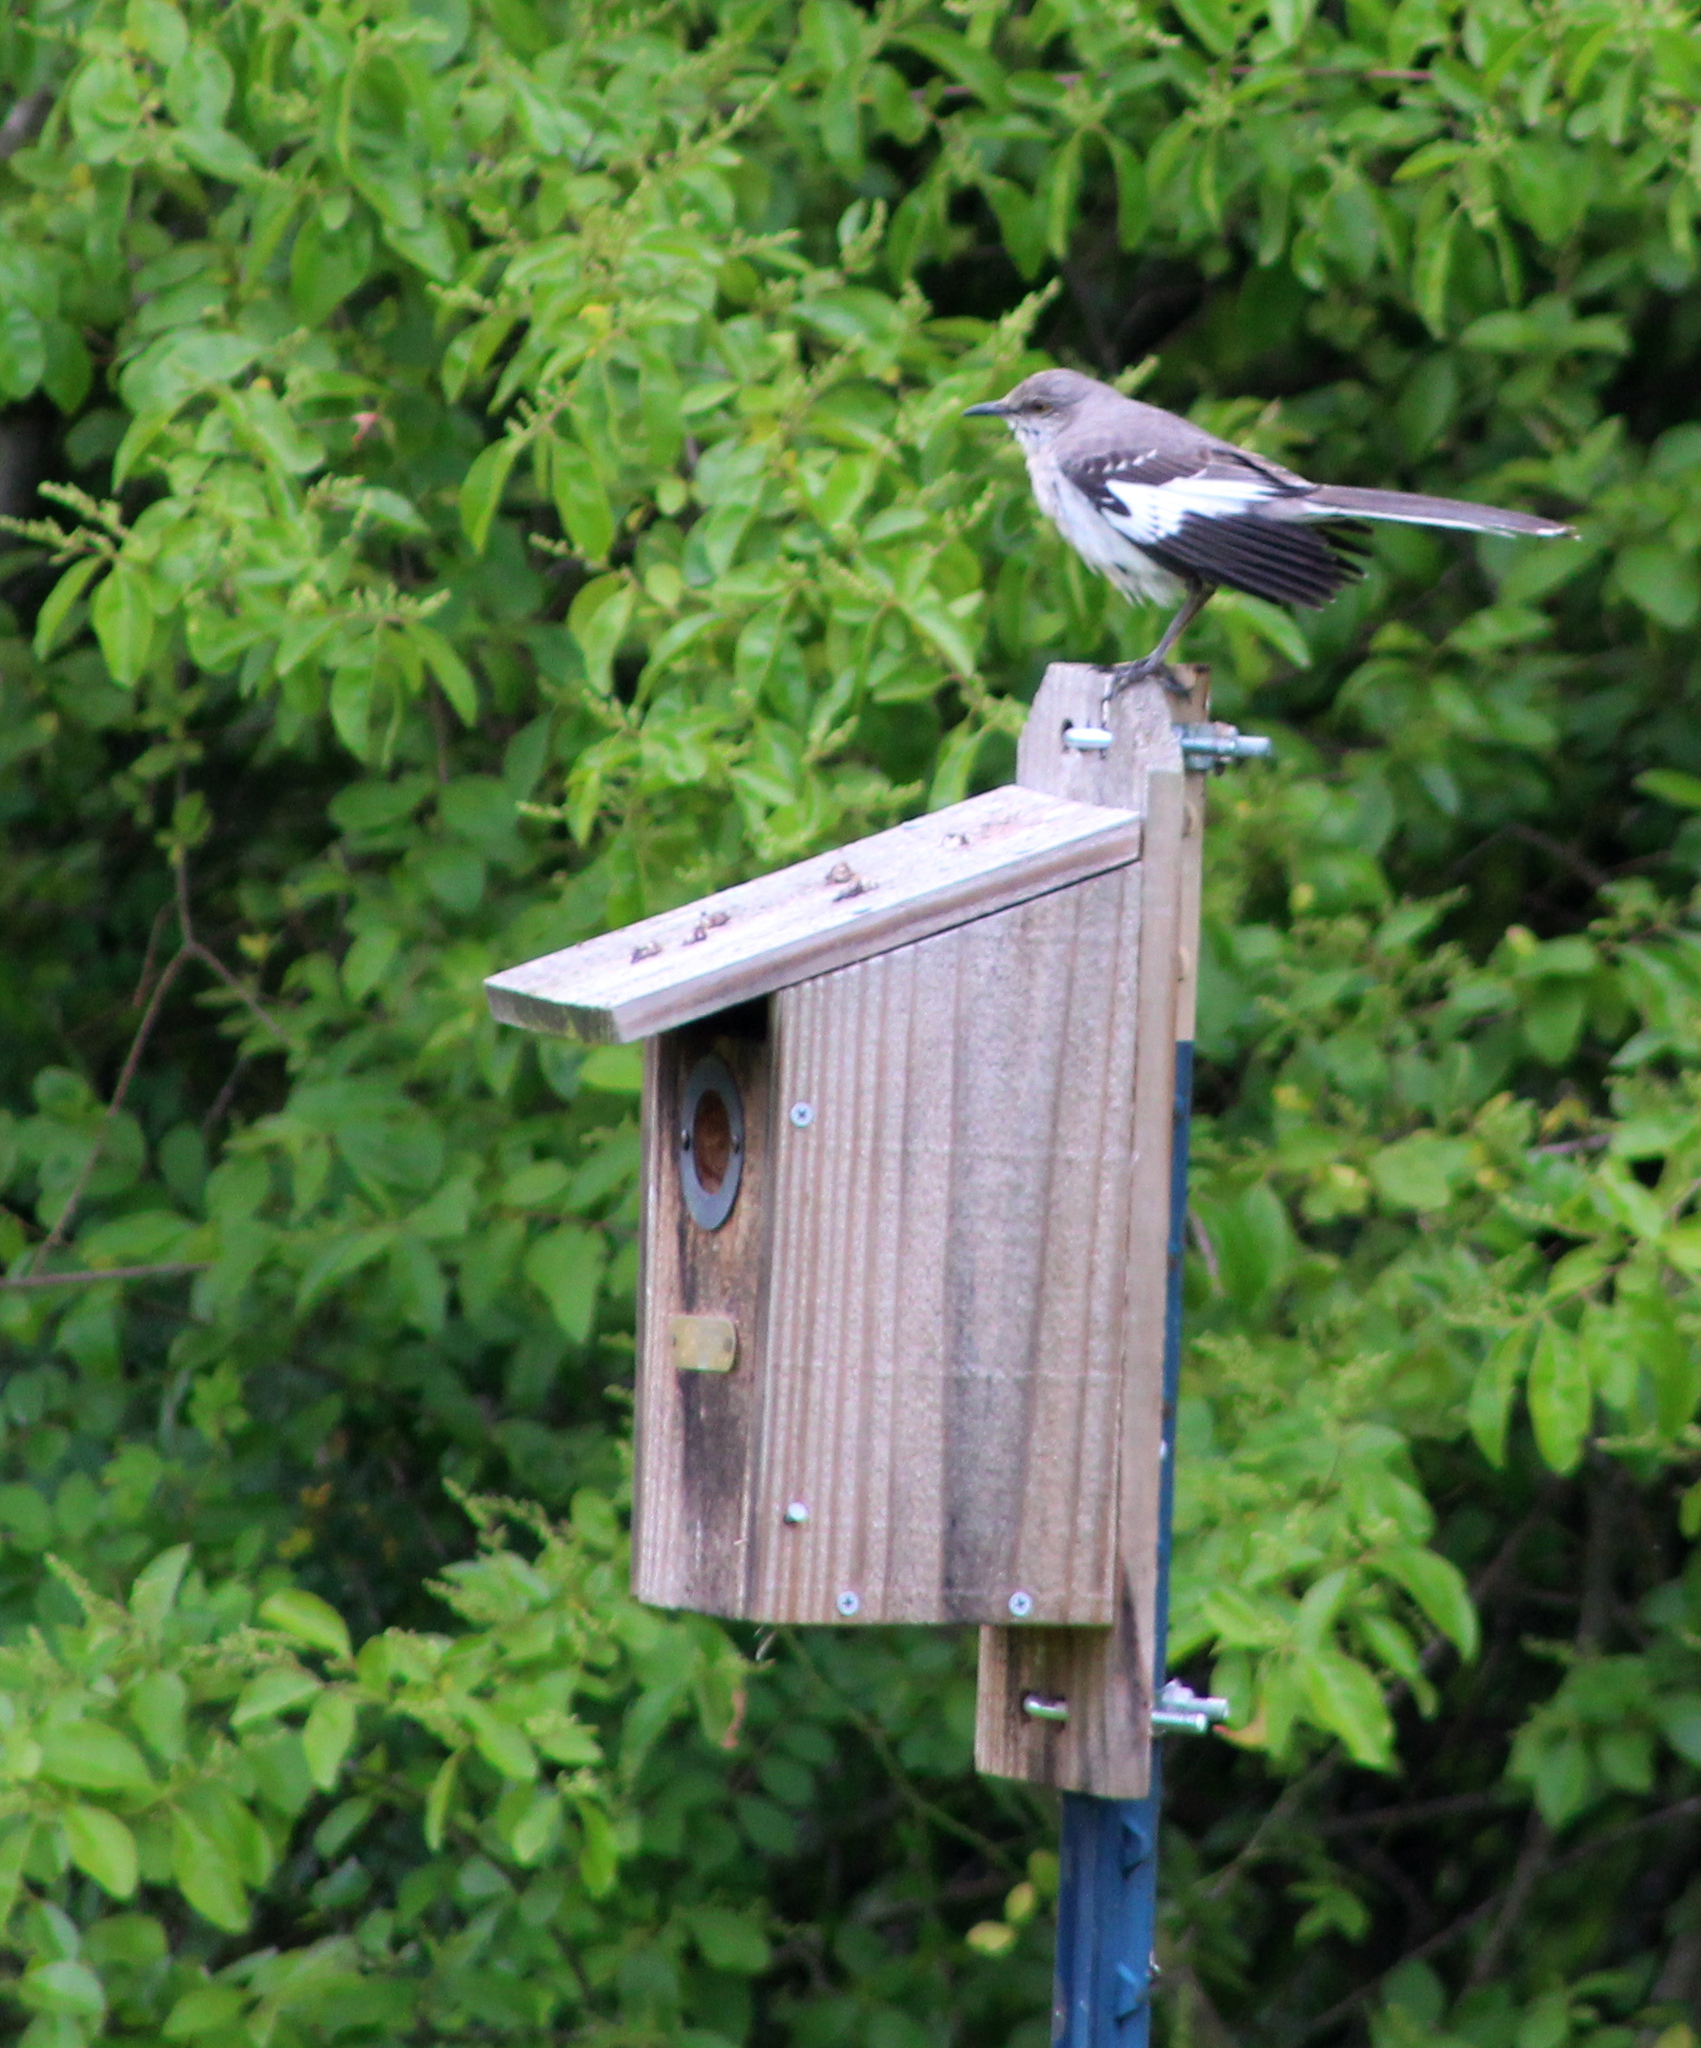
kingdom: Animalia
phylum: Chordata
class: Aves
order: Passeriformes
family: Mimidae
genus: Mimus
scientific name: Mimus polyglottos
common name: Northern mockingbird
